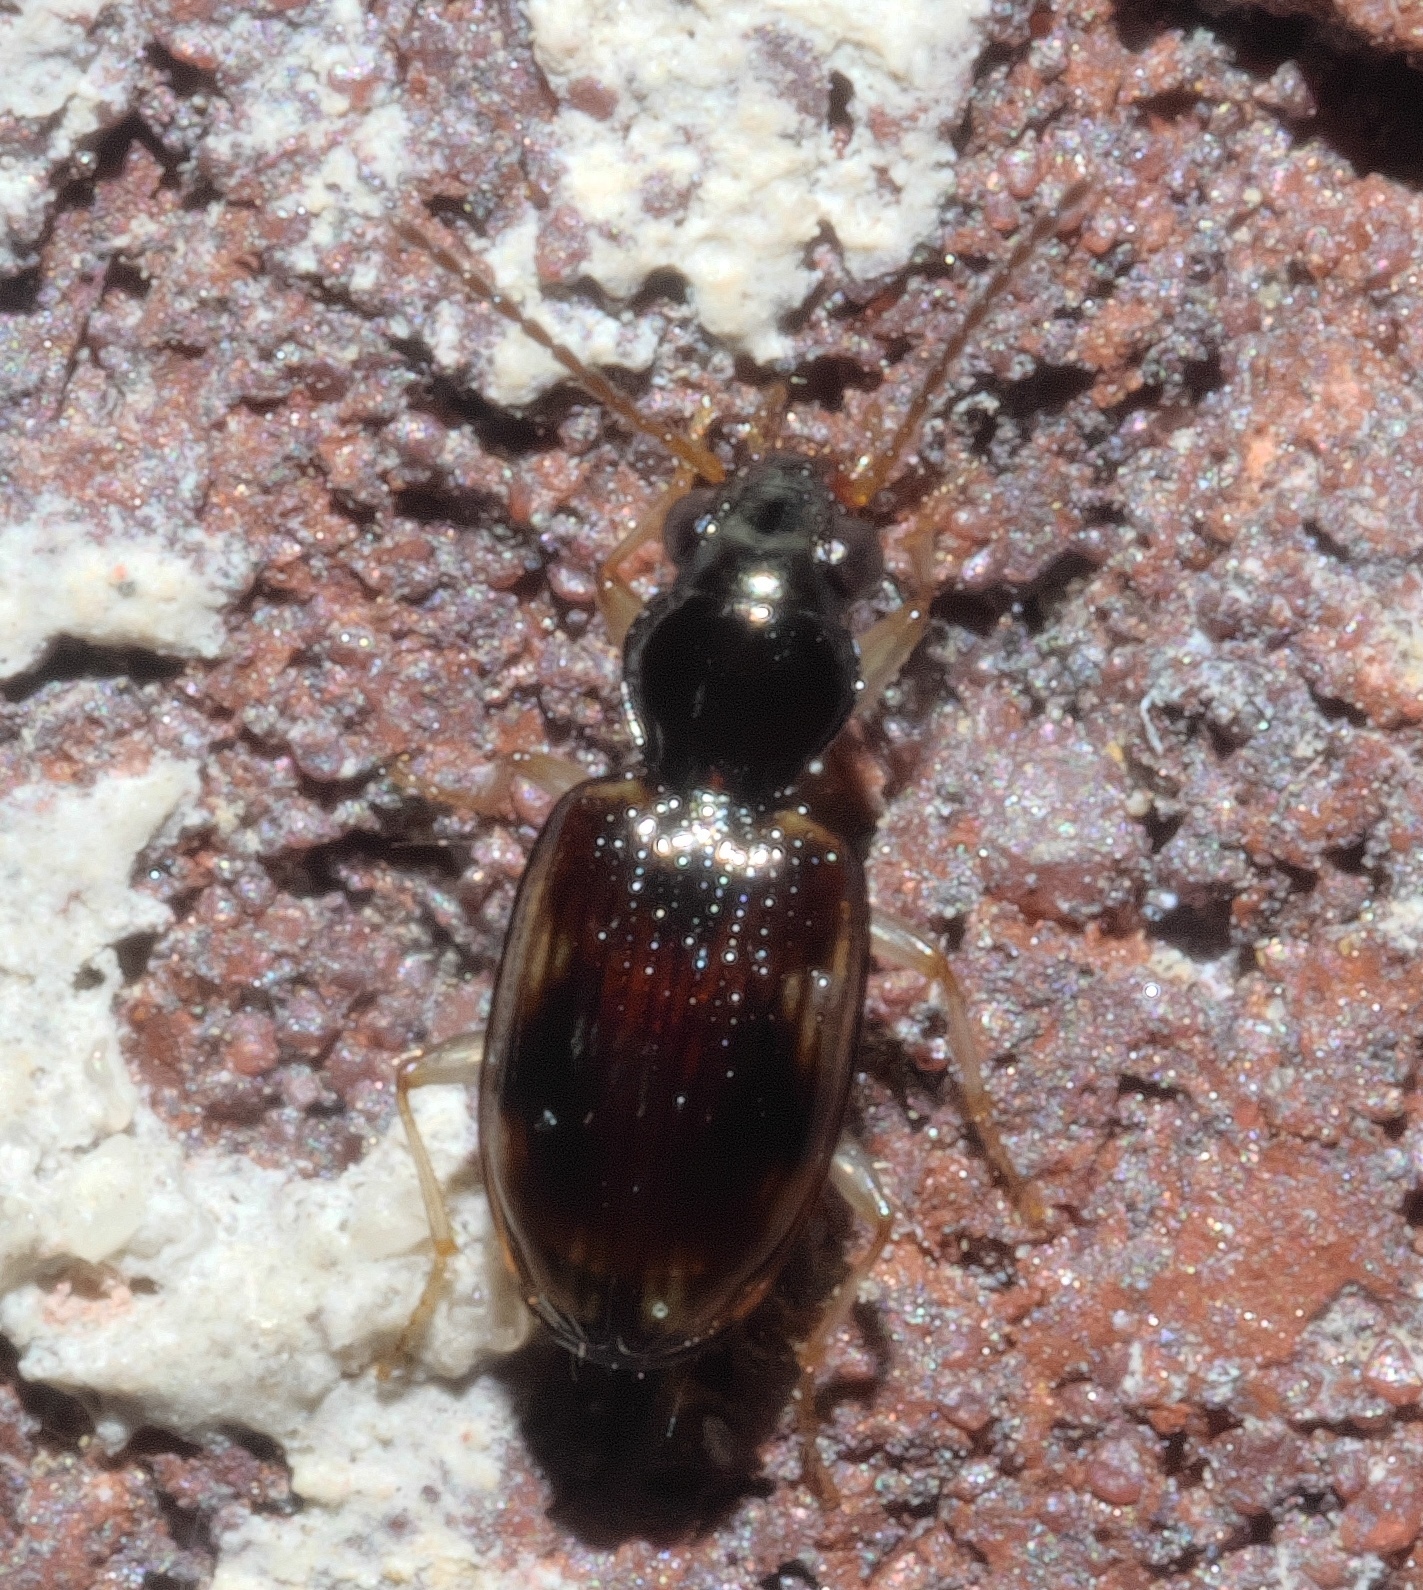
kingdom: Animalia
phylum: Arthropoda
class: Insecta
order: Coleoptera
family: Carabidae
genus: Bembidion
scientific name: Bembidion affine
